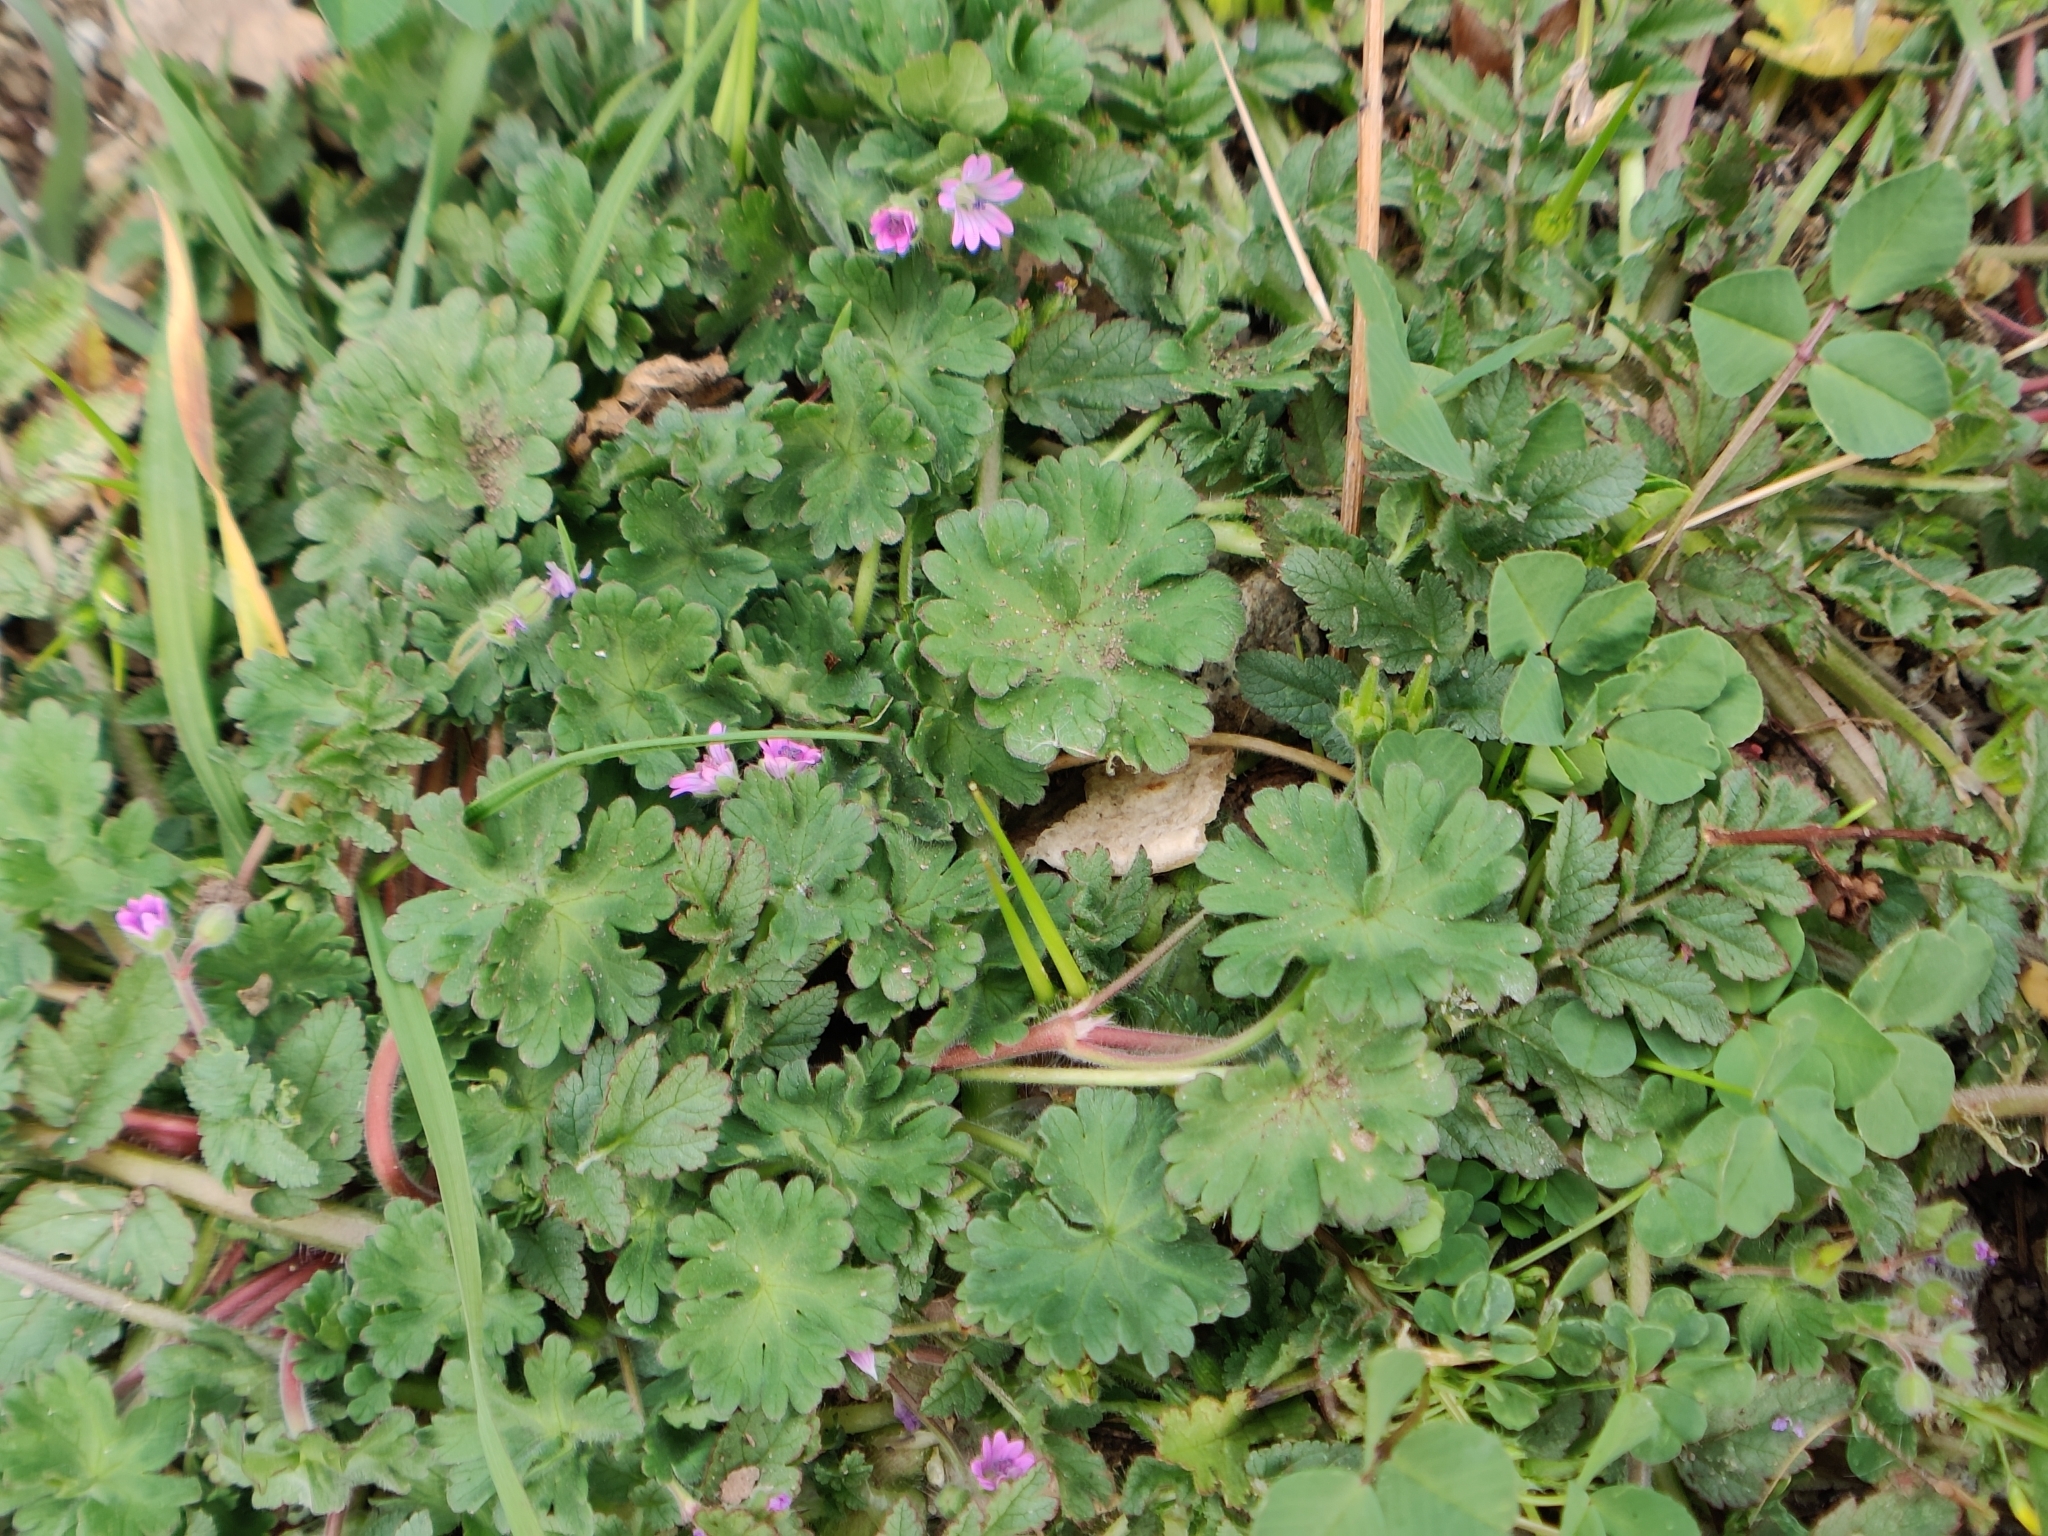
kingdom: Plantae
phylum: Tracheophyta
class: Magnoliopsida
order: Geraniales
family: Geraniaceae
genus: Geranium
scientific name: Geranium molle
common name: Dove's-foot crane's-bill
